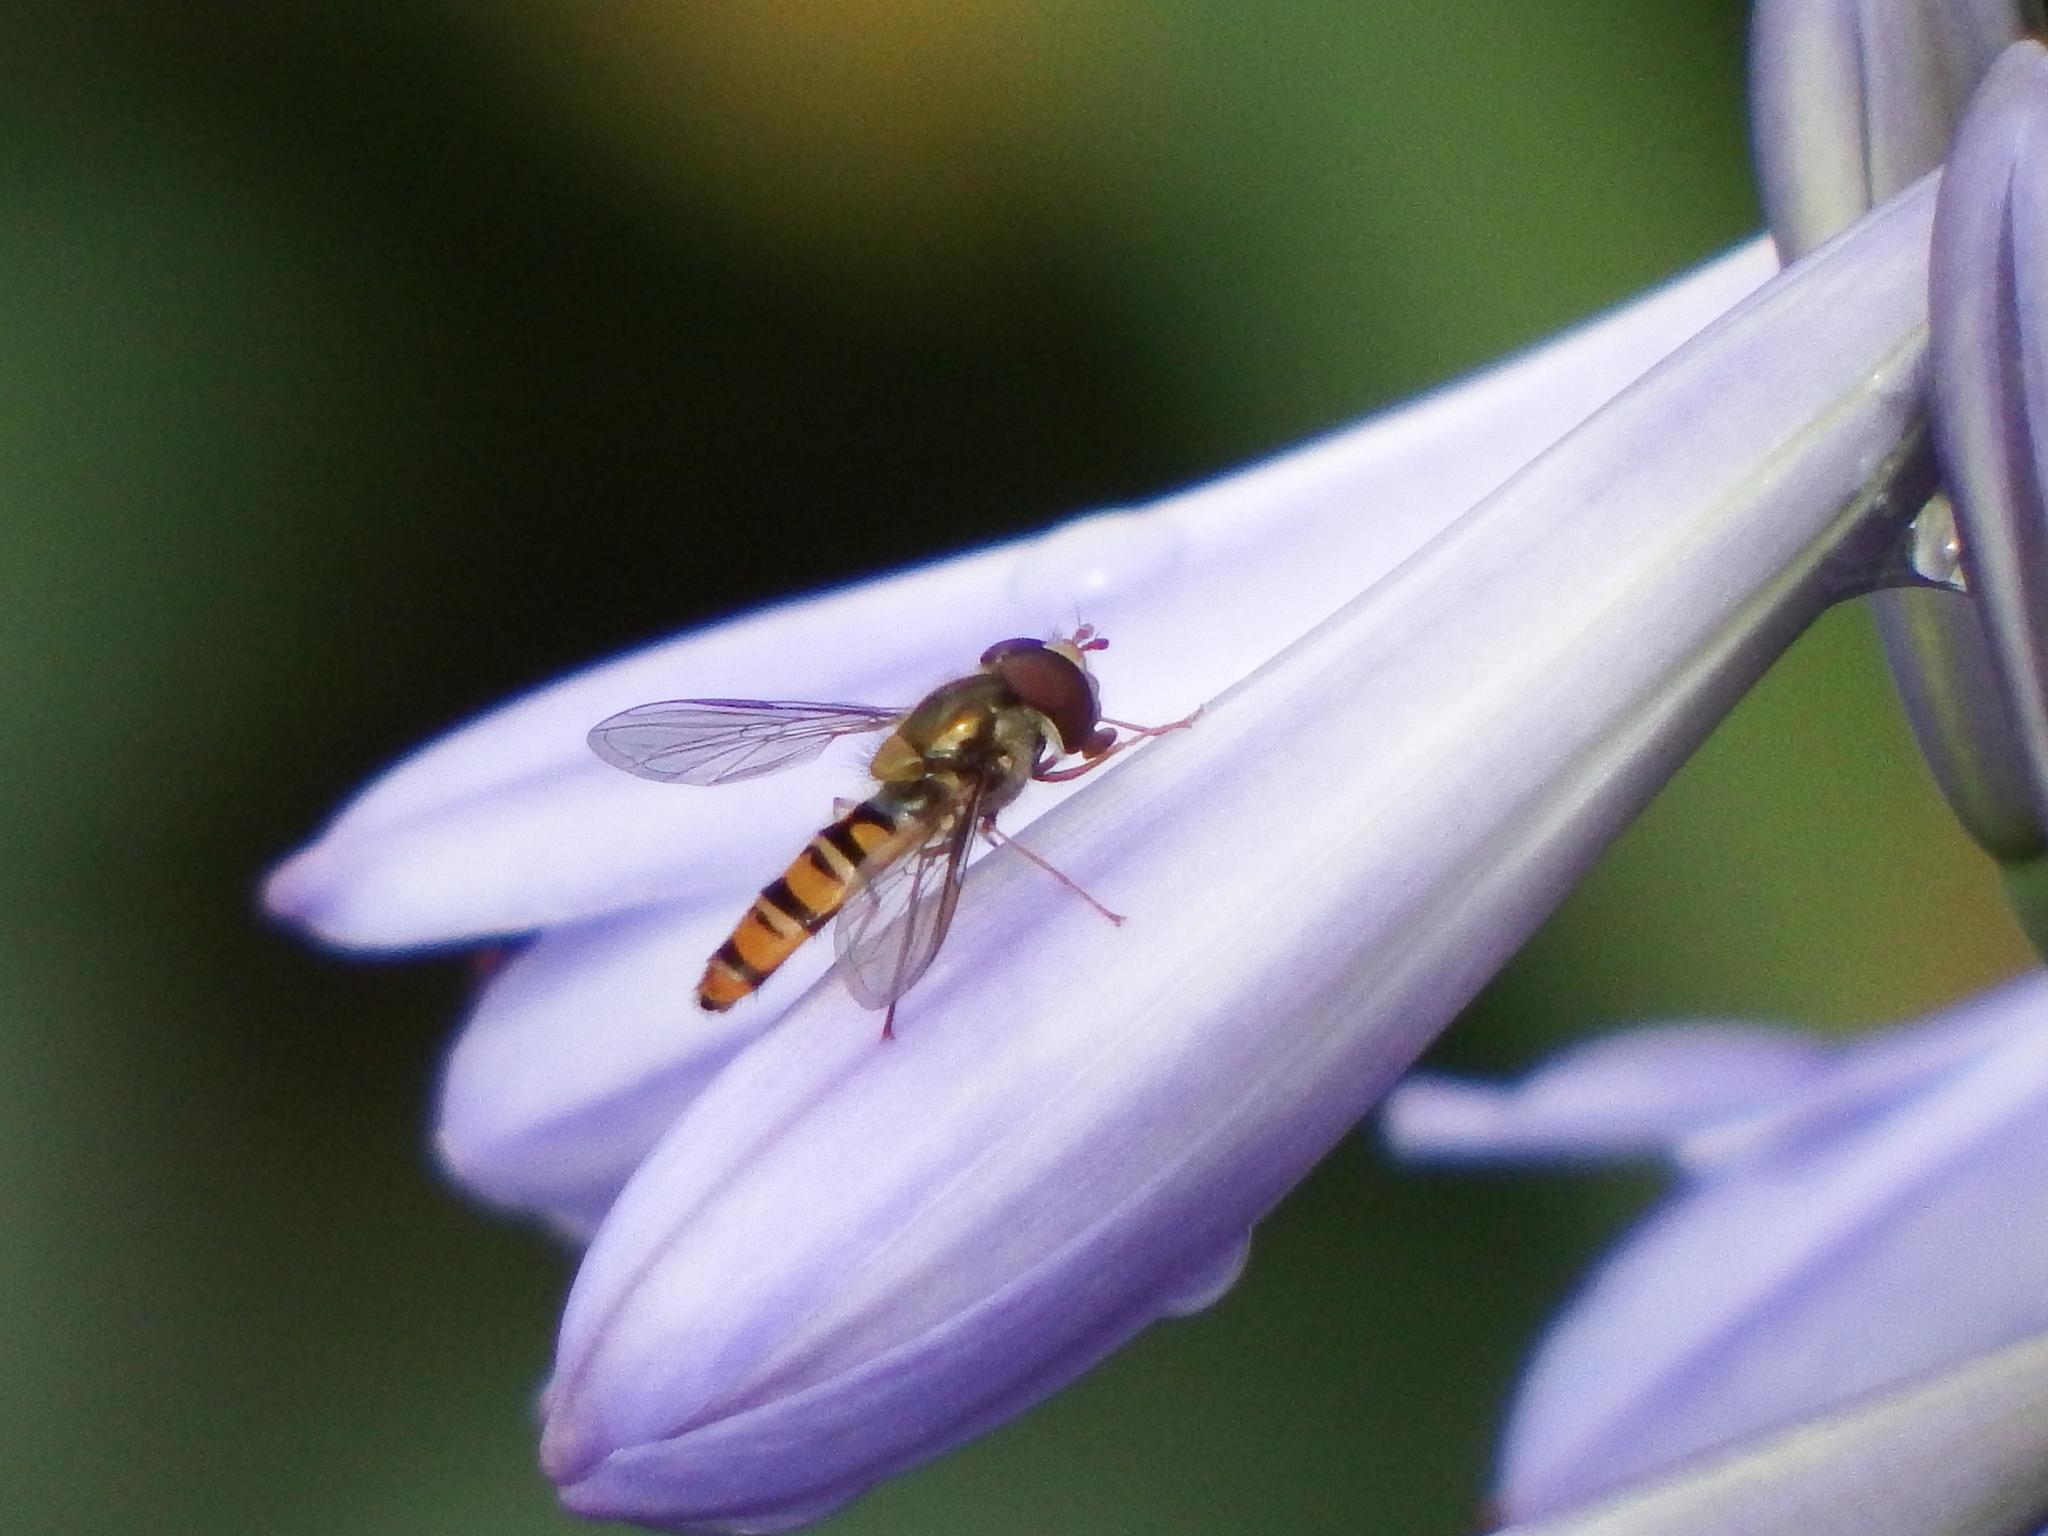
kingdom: Animalia
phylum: Arthropoda
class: Insecta
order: Diptera
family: Syrphidae
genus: Episyrphus
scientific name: Episyrphus balteatus
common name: Marmalade hoverfly
